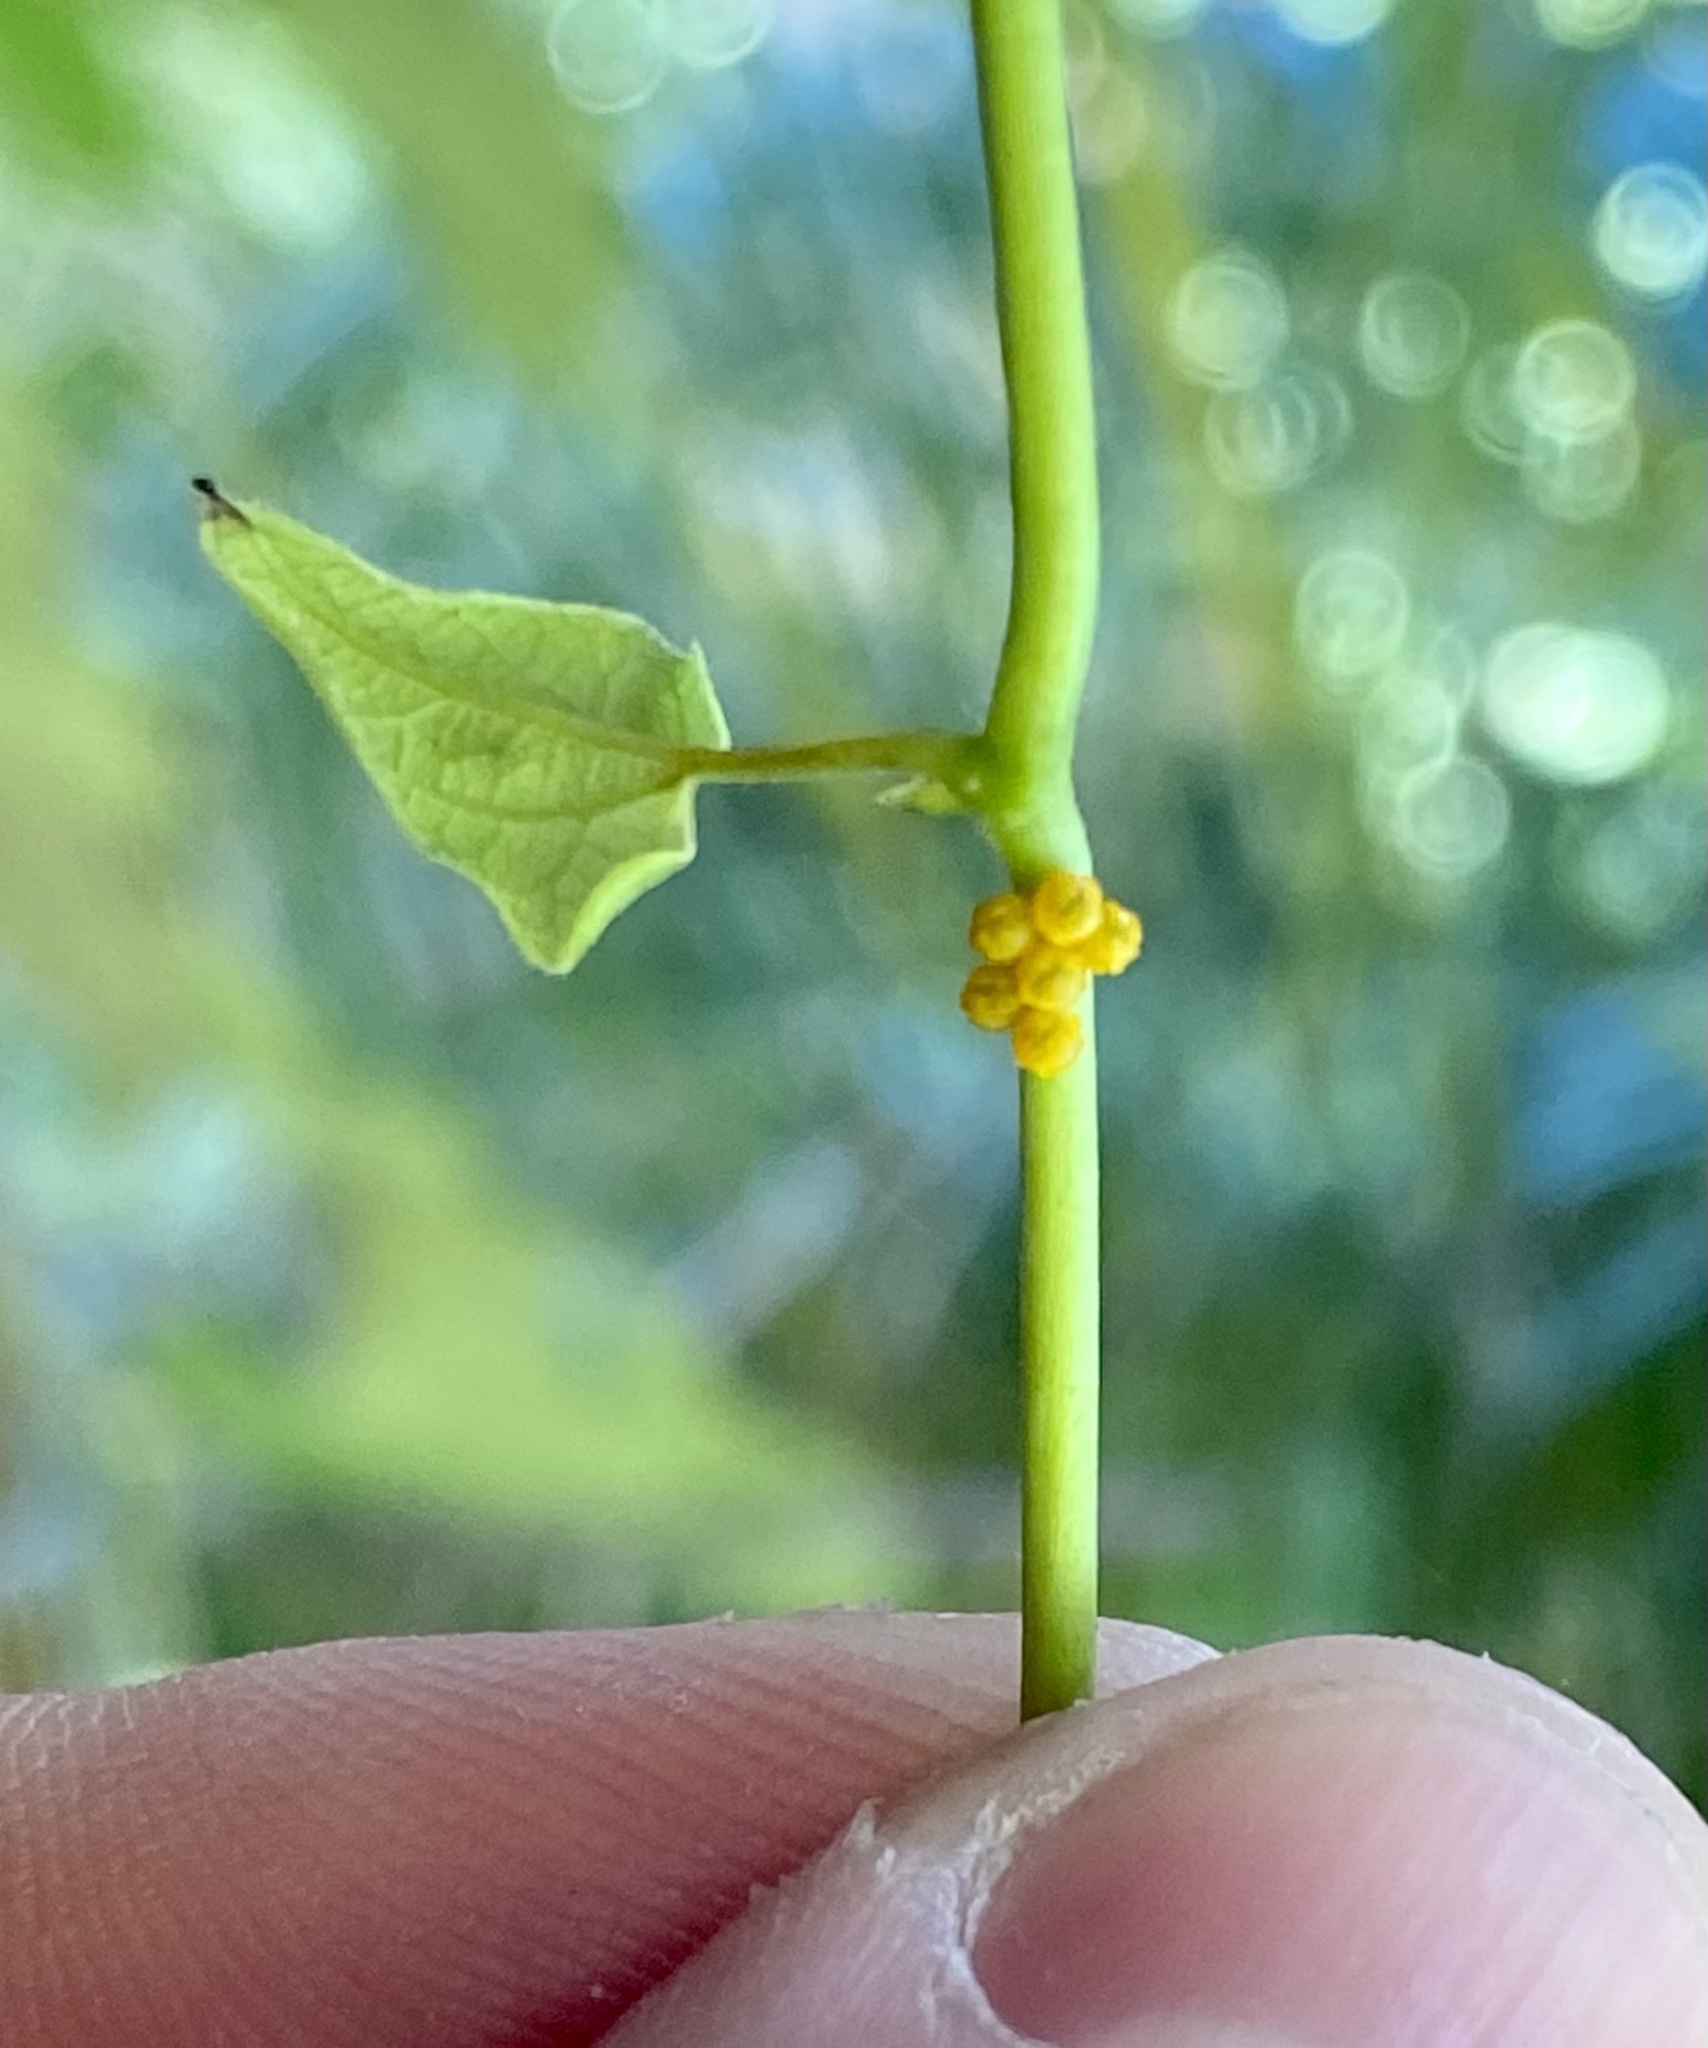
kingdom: Animalia
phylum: Arthropoda
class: Insecta
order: Lepidoptera
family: Papilionidae
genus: Battus
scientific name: Battus polydamas
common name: Polydamas swallowtail
